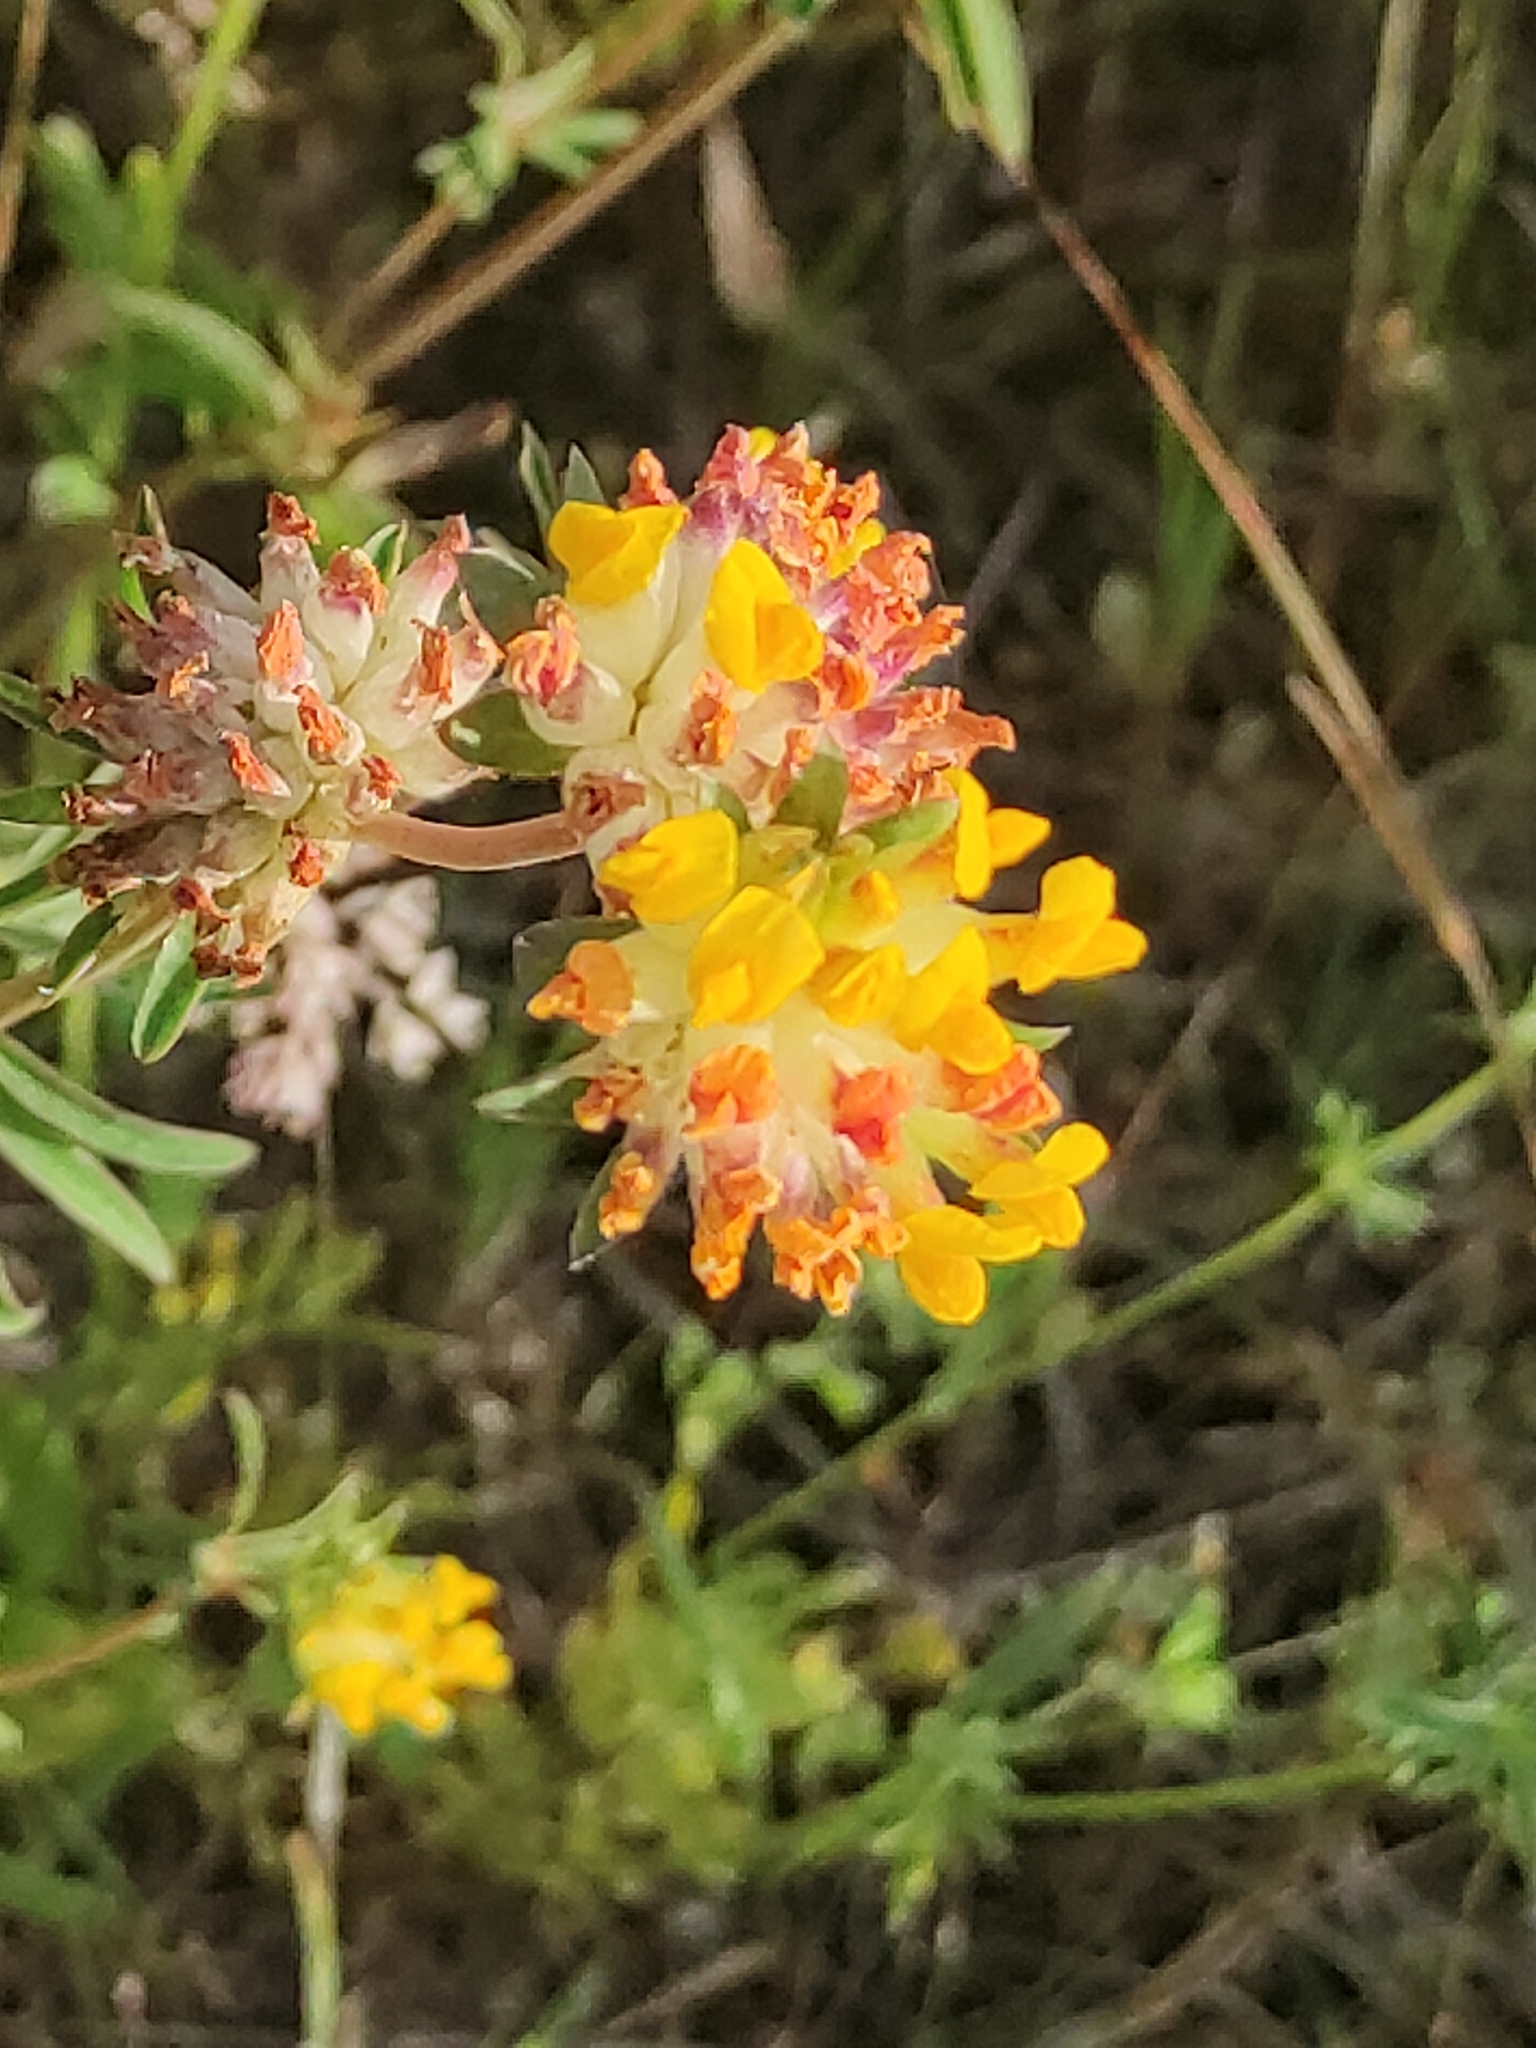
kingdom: Plantae
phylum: Tracheophyta
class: Magnoliopsida
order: Fabales
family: Fabaceae
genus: Anthyllis
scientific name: Anthyllis vulneraria
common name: Kidney vetch
